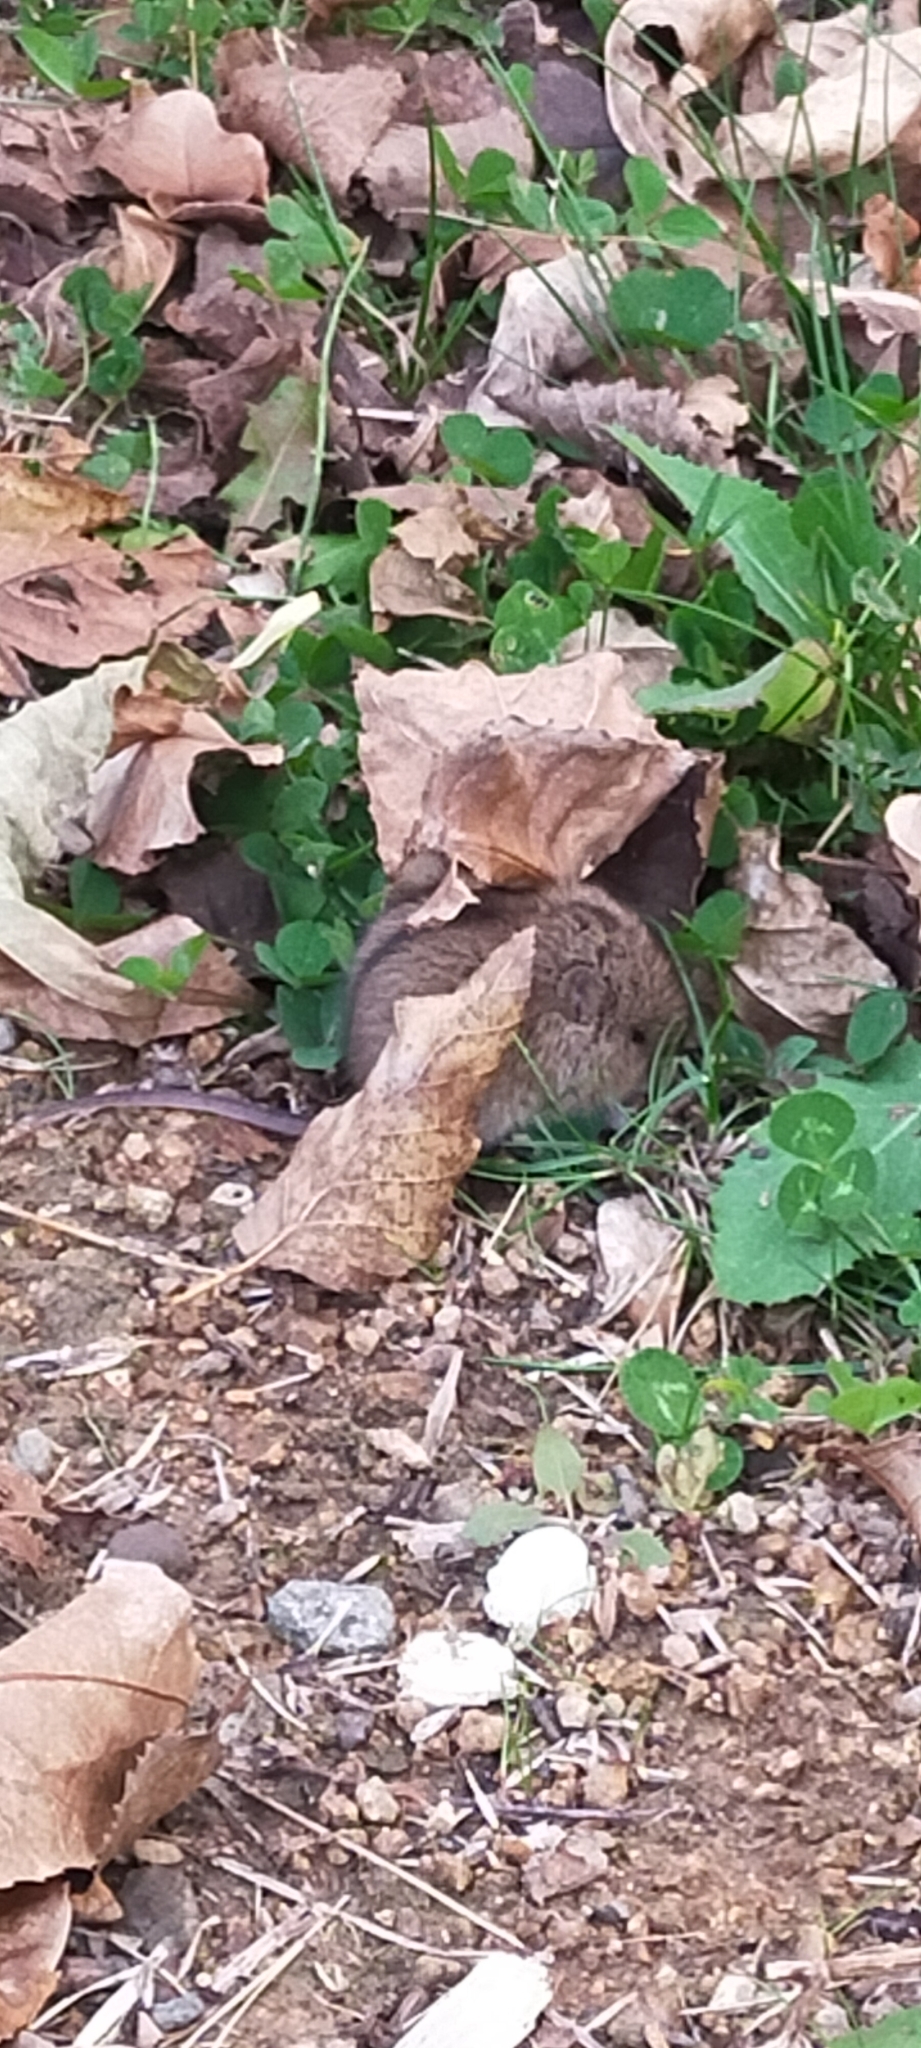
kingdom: Animalia
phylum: Chordata
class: Mammalia
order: Rodentia
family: Muridae
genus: Apodemus
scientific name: Apodemus agrarius
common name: Striped field mouse
